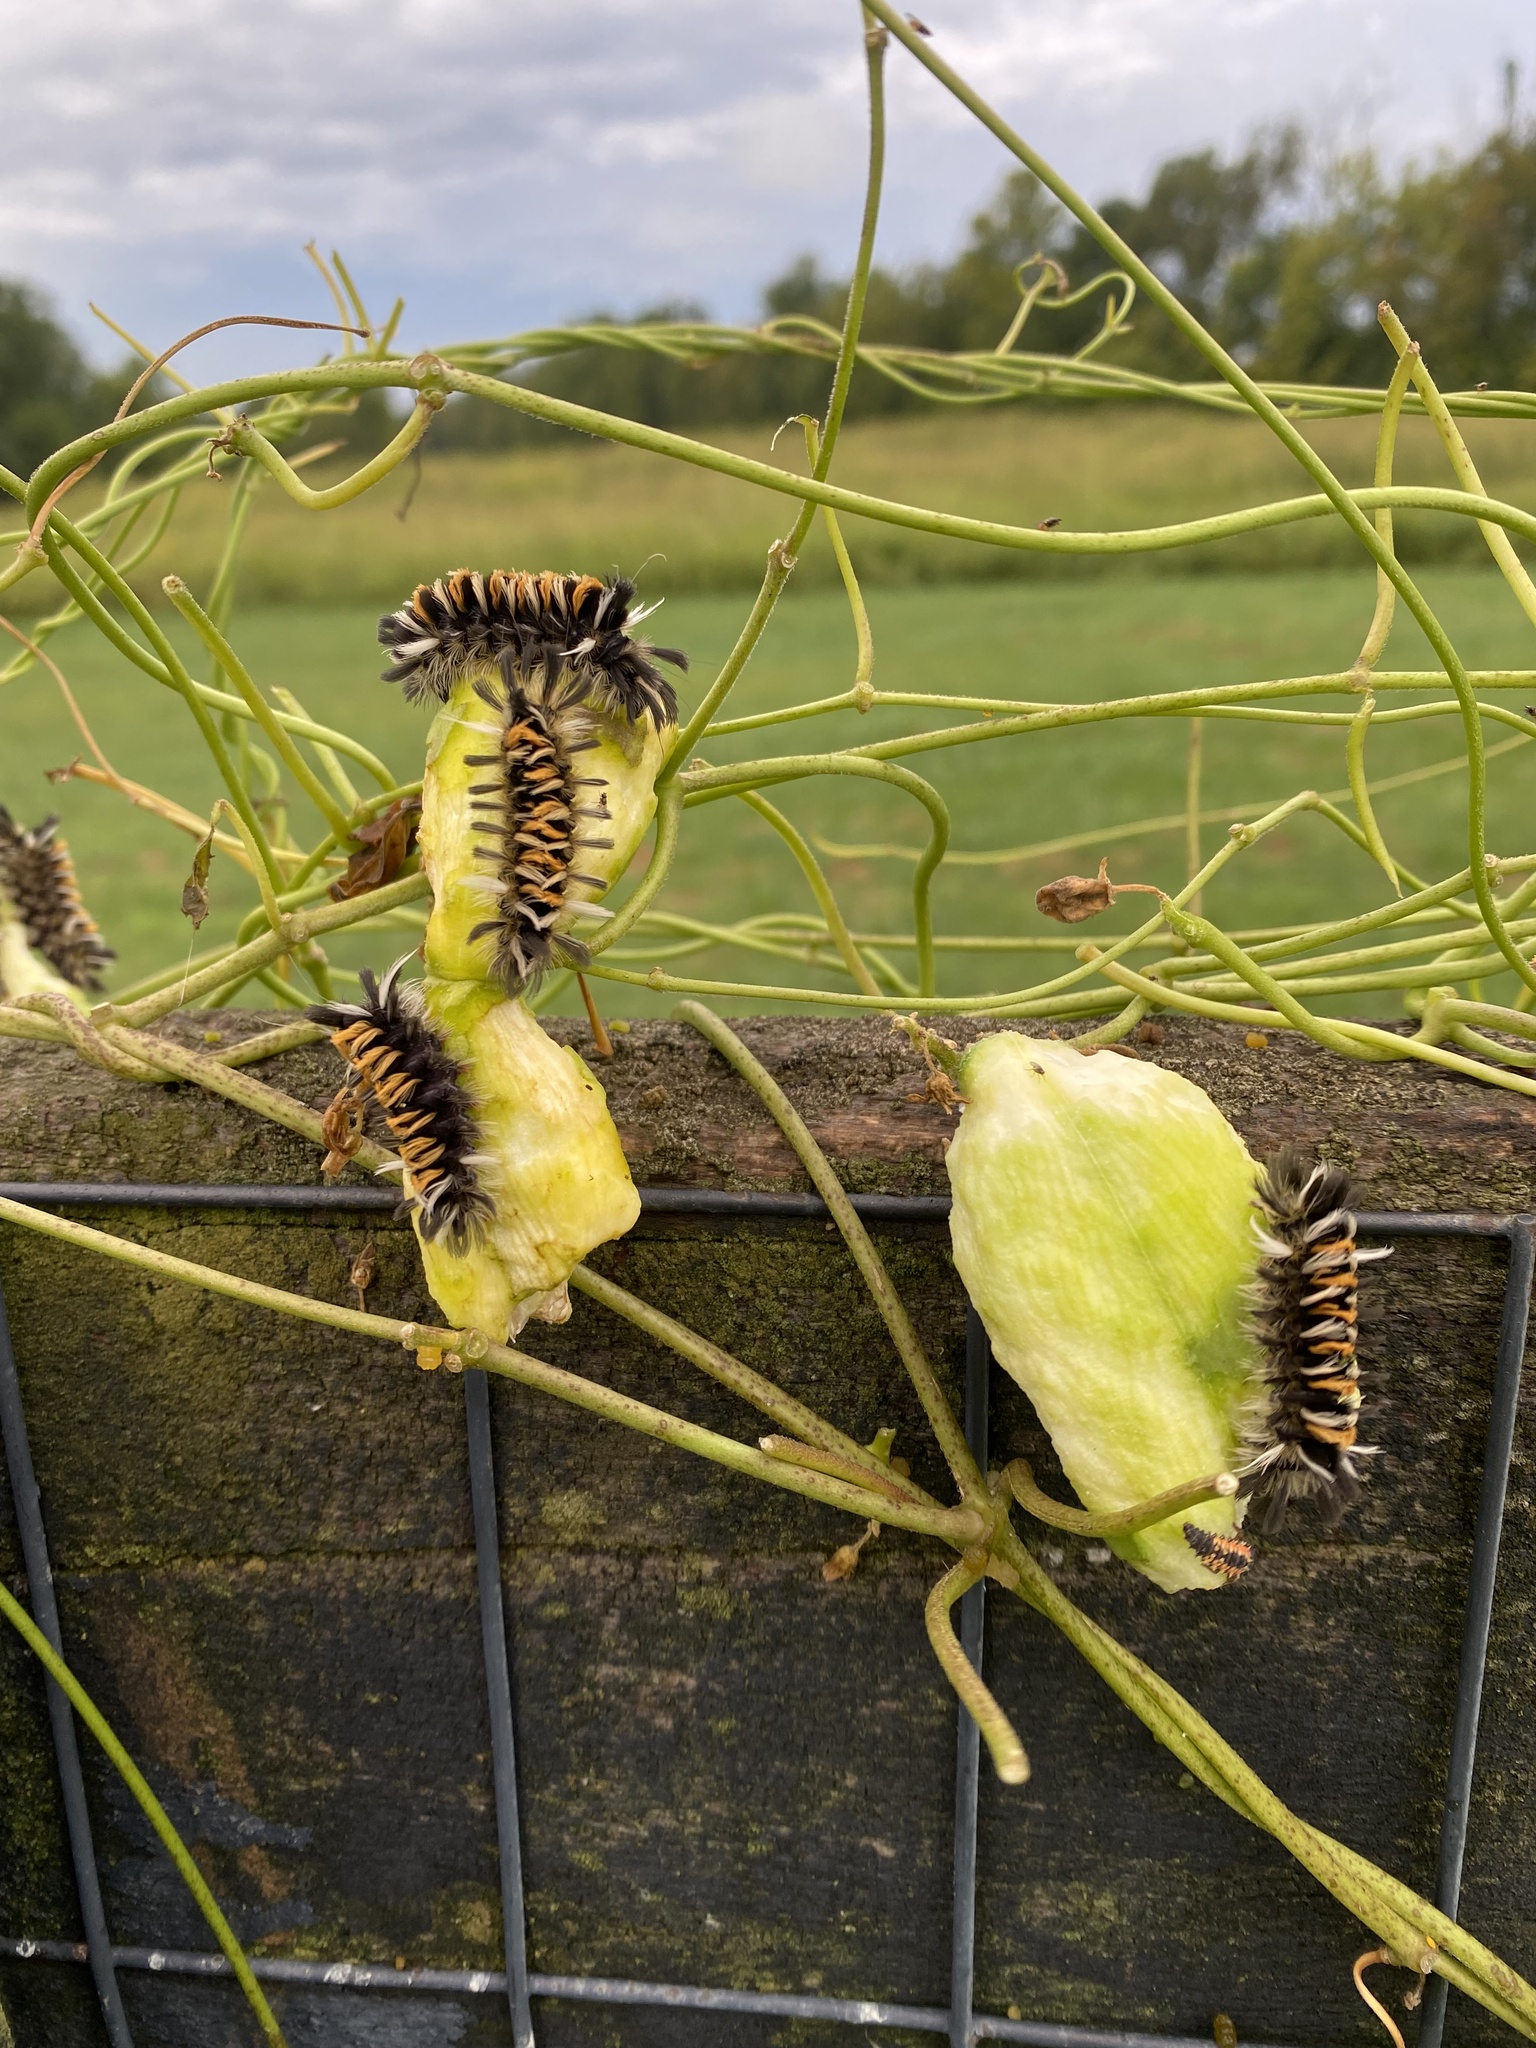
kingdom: Animalia
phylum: Arthropoda
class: Insecta
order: Lepidoptera
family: Erebidae
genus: Euchaetes
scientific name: Euchaetes egle
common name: Milkweed tussock moth
